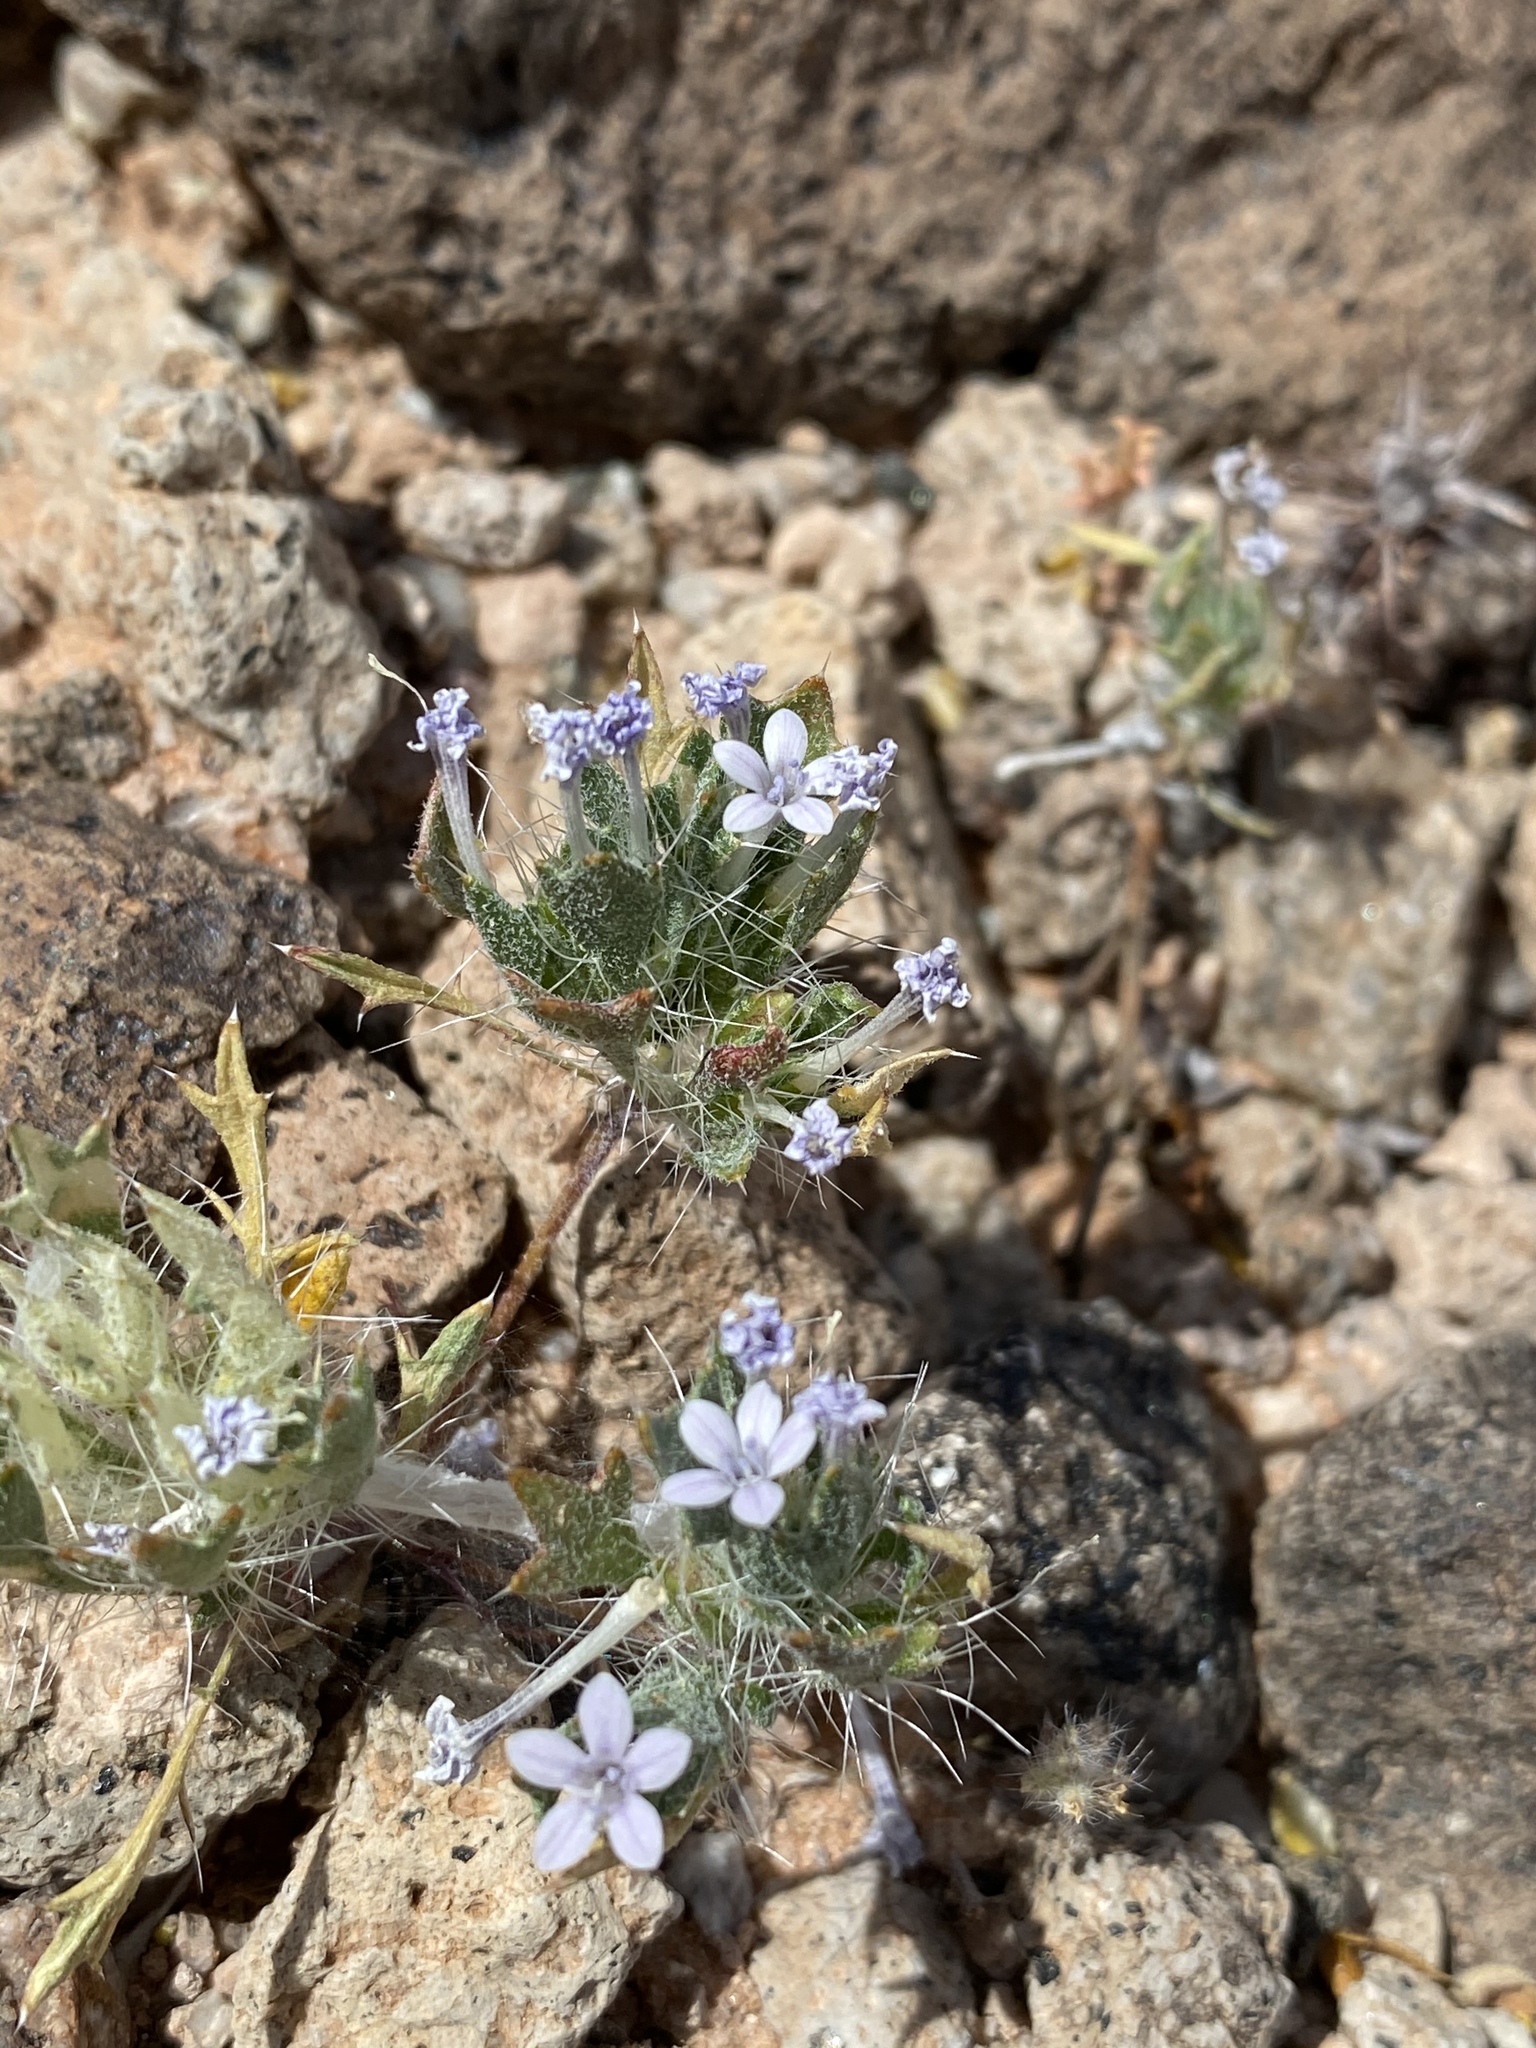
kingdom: Plantae
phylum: Tracheophyta
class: Magnoliopsida
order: Ericales
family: Polemoniaceae
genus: Langloisia
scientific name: Langloisia setosissima
